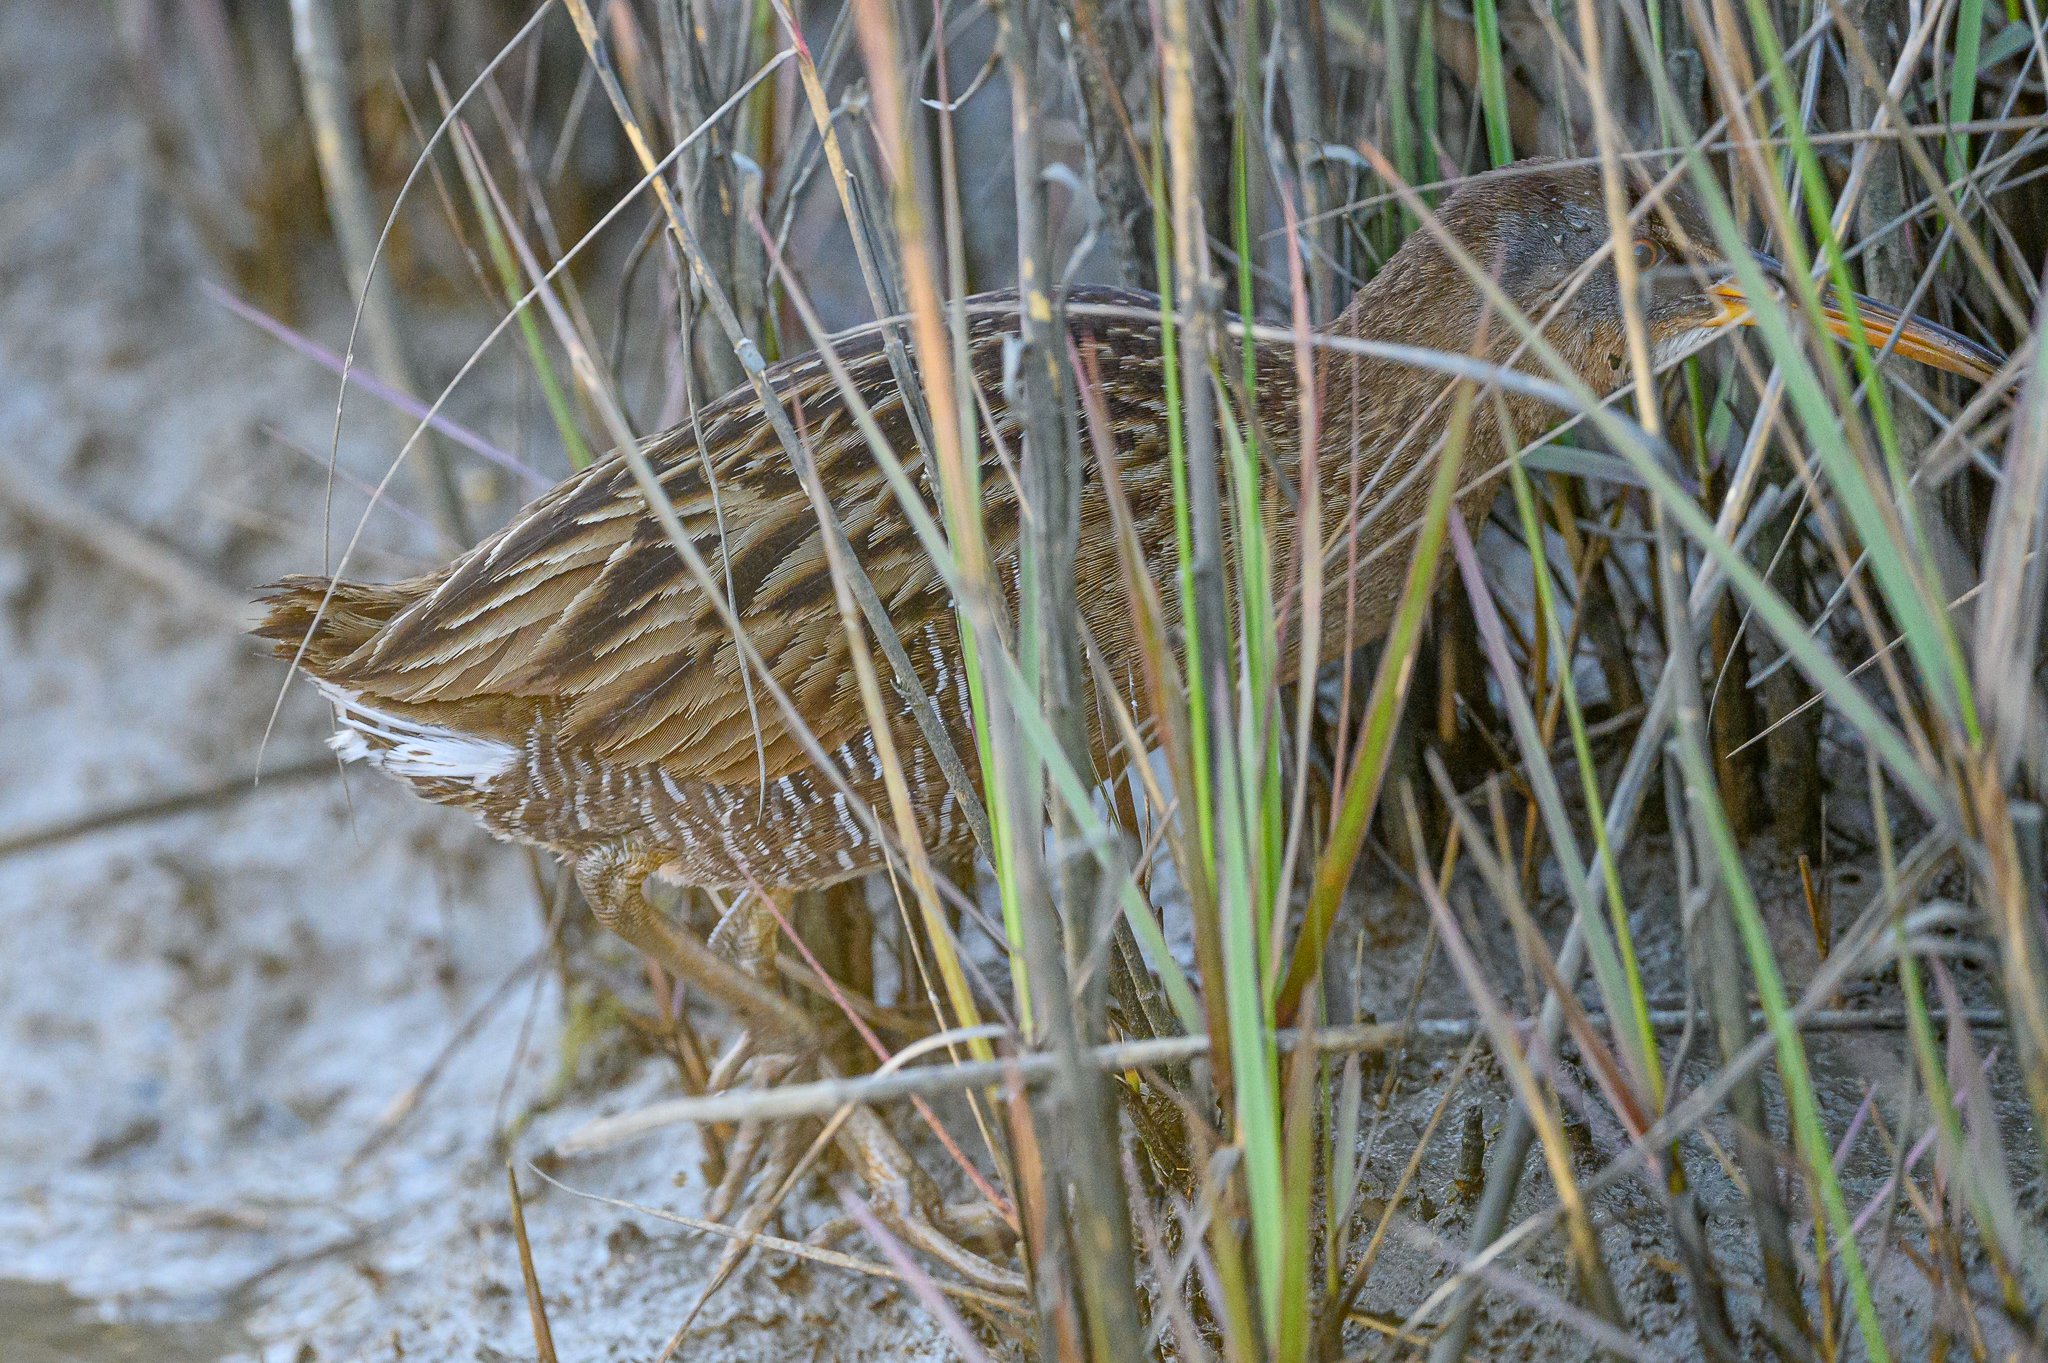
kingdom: Animalia
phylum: Chordata
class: Aves
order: Gruiformes
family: Rallidae
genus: Rallus
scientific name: Rallus crepitans
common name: Clapper rail
